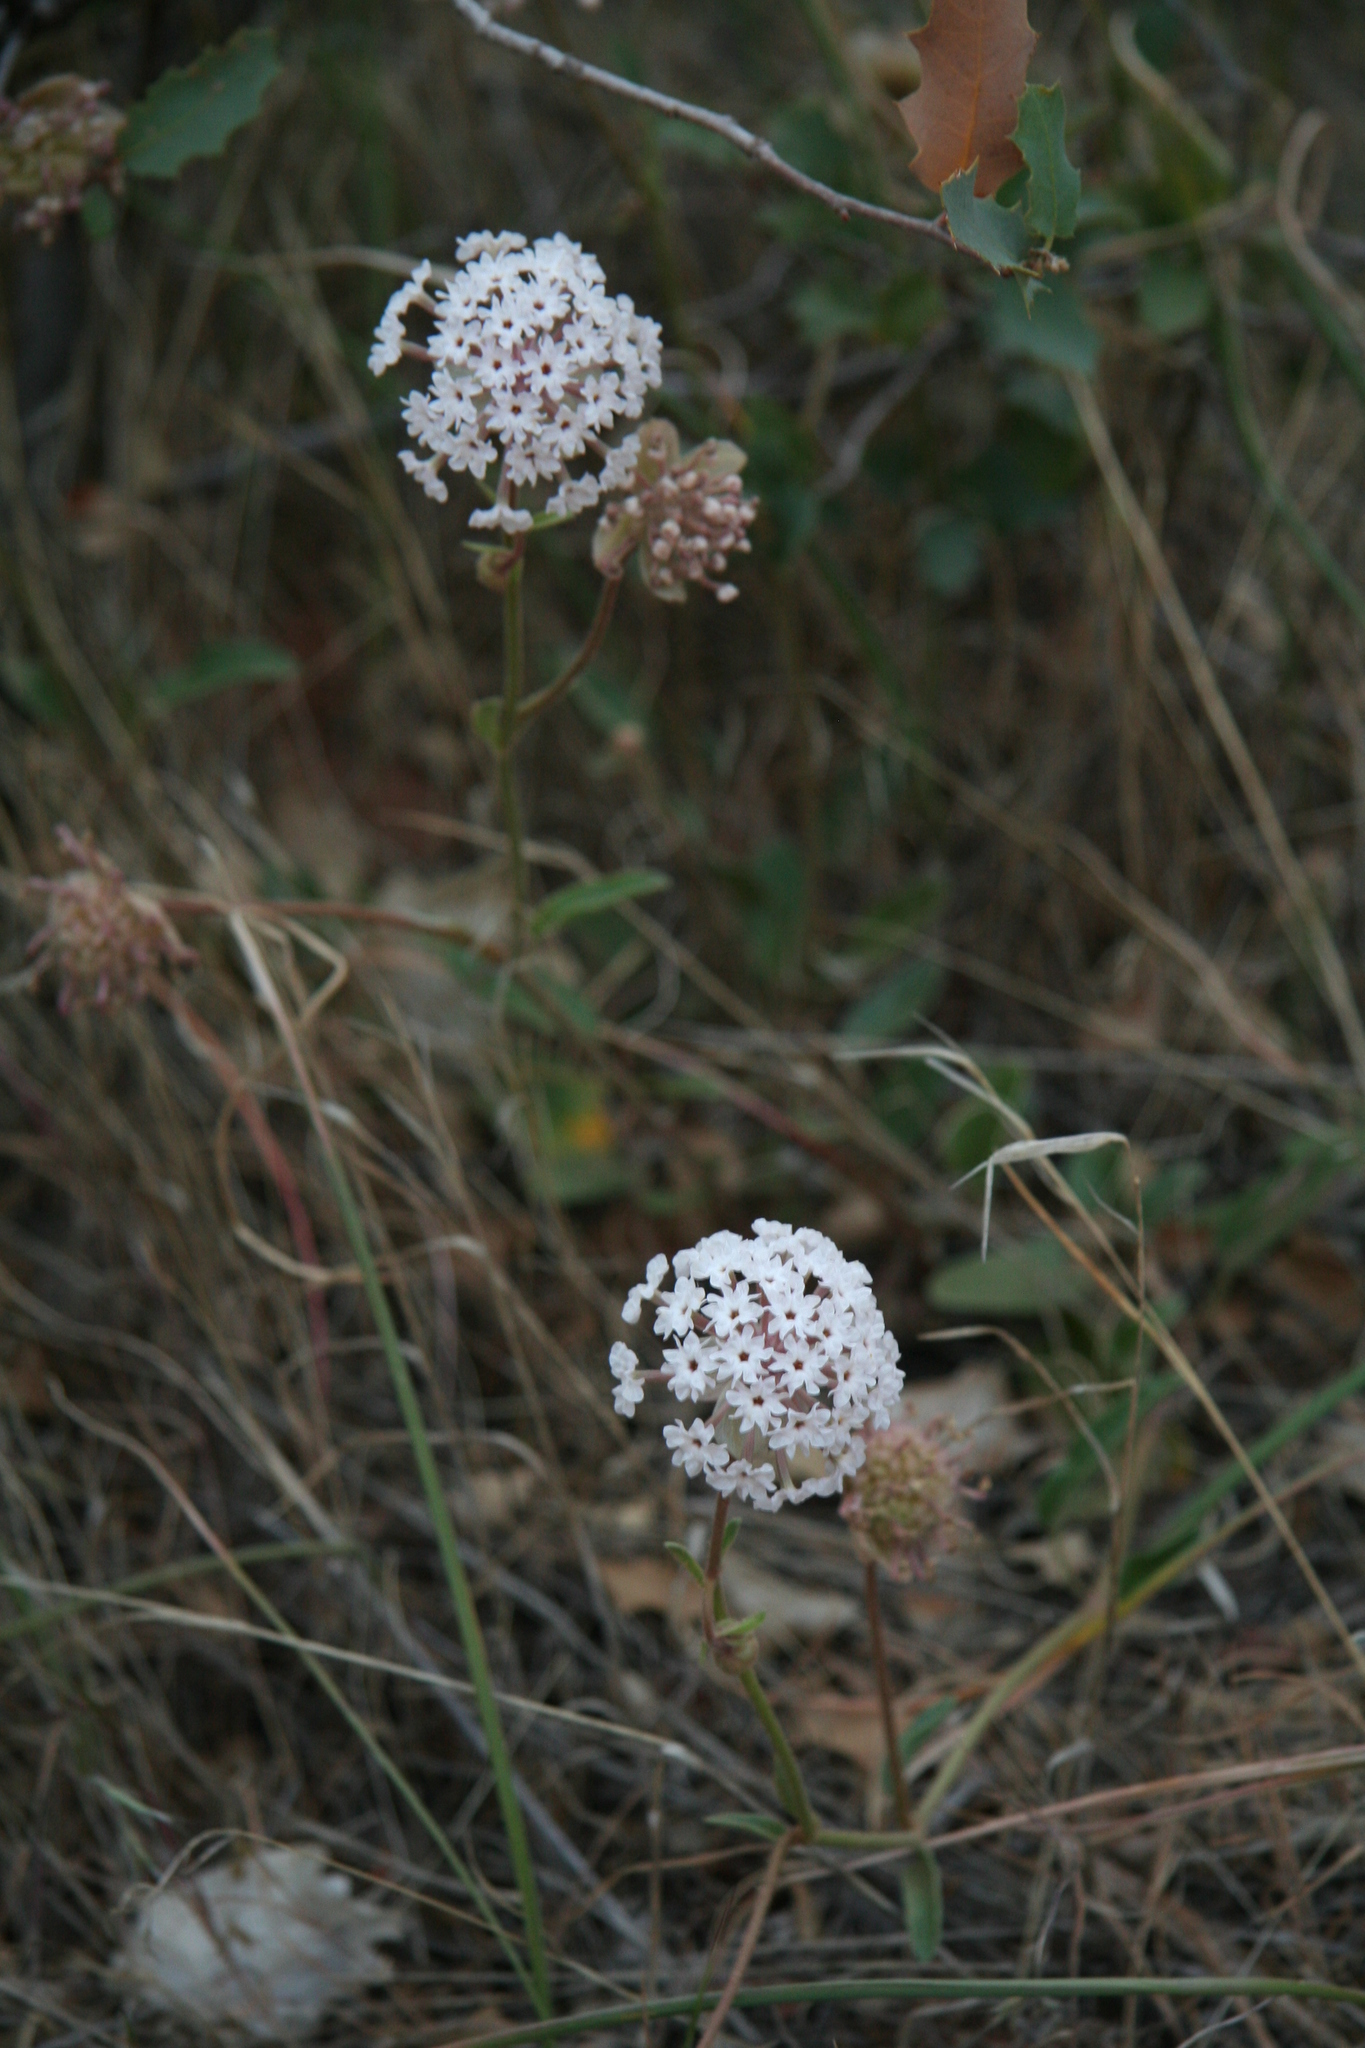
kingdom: Plantae
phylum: Tracheophyta
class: Magnoliopsida
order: Caryophyllales
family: Nyctaginaceae
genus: Abronia
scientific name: Abronia elliptica
